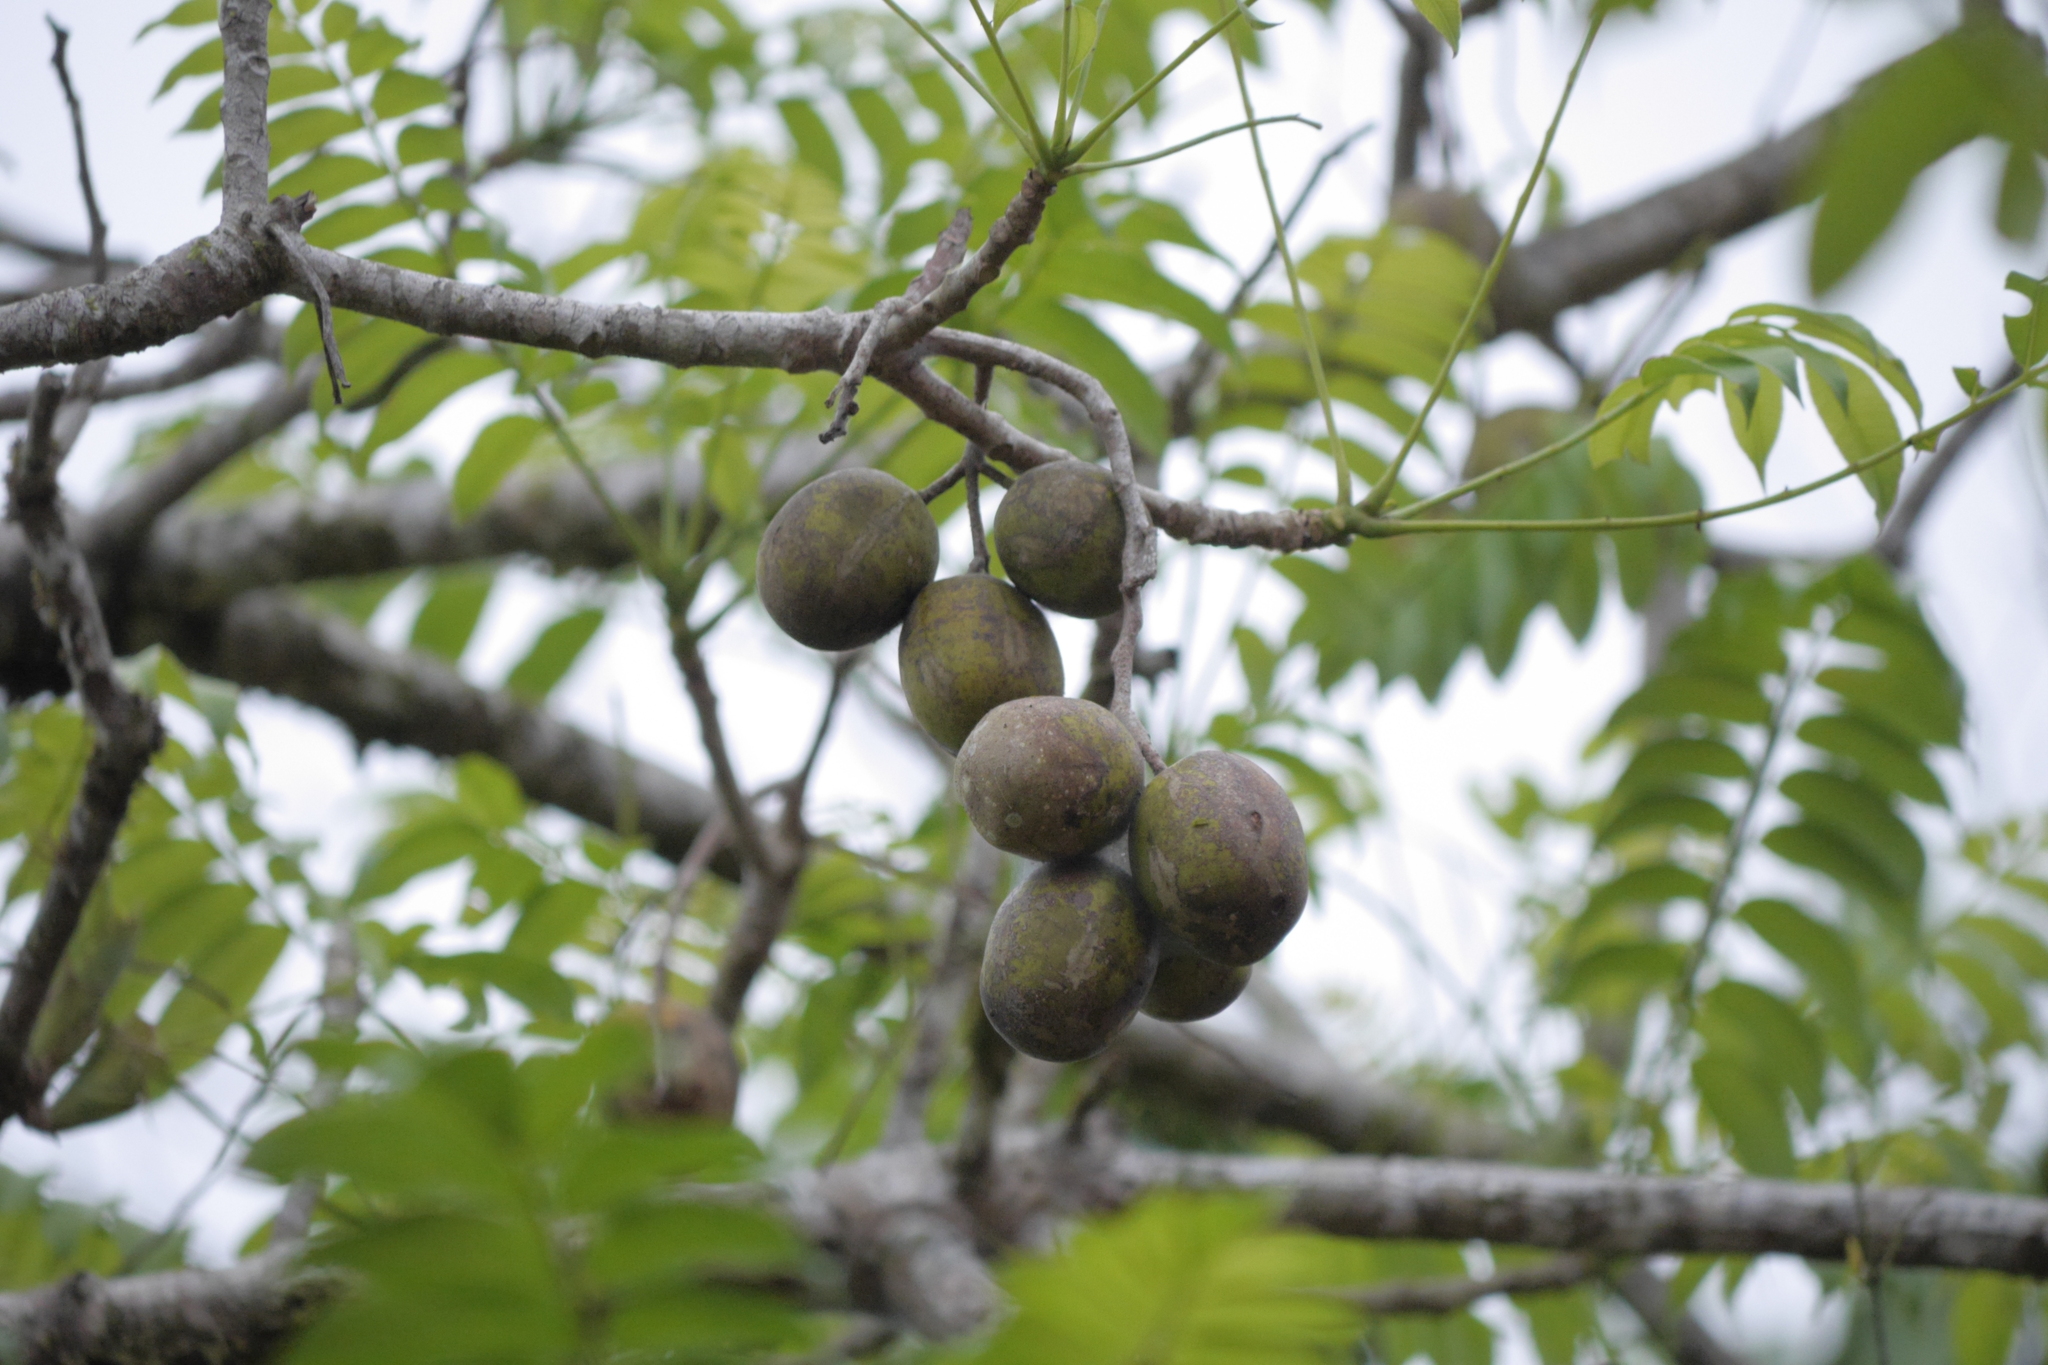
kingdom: Plantae
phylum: Tracheophyta
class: Magnoliopsida
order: Sapindales
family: Anacardiaceae
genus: Spondias
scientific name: Spondias mombin
